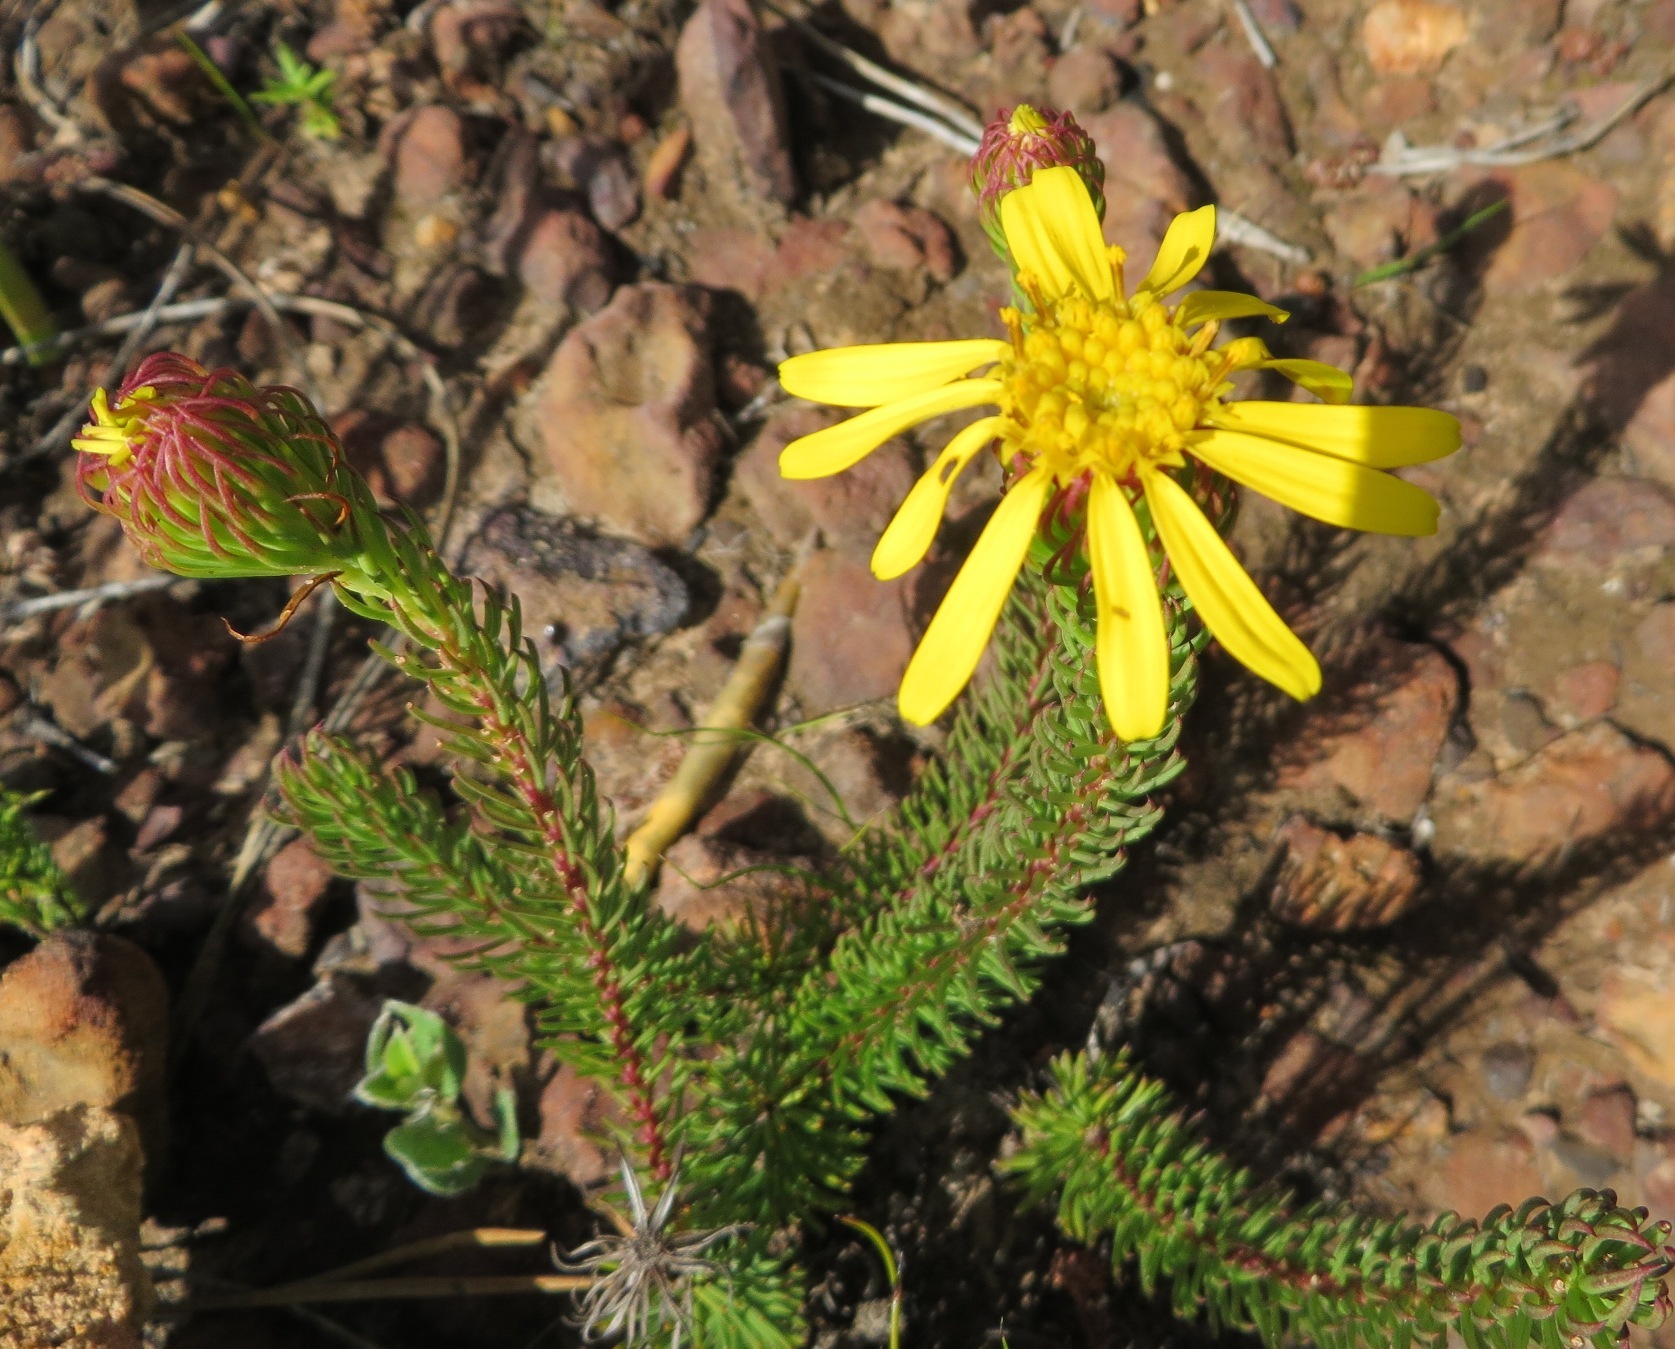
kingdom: Plantae
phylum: Tracheophyta
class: Magnoliopsida
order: Asterales
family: Asteraceae
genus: Senecio
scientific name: Senecio pinifolius
